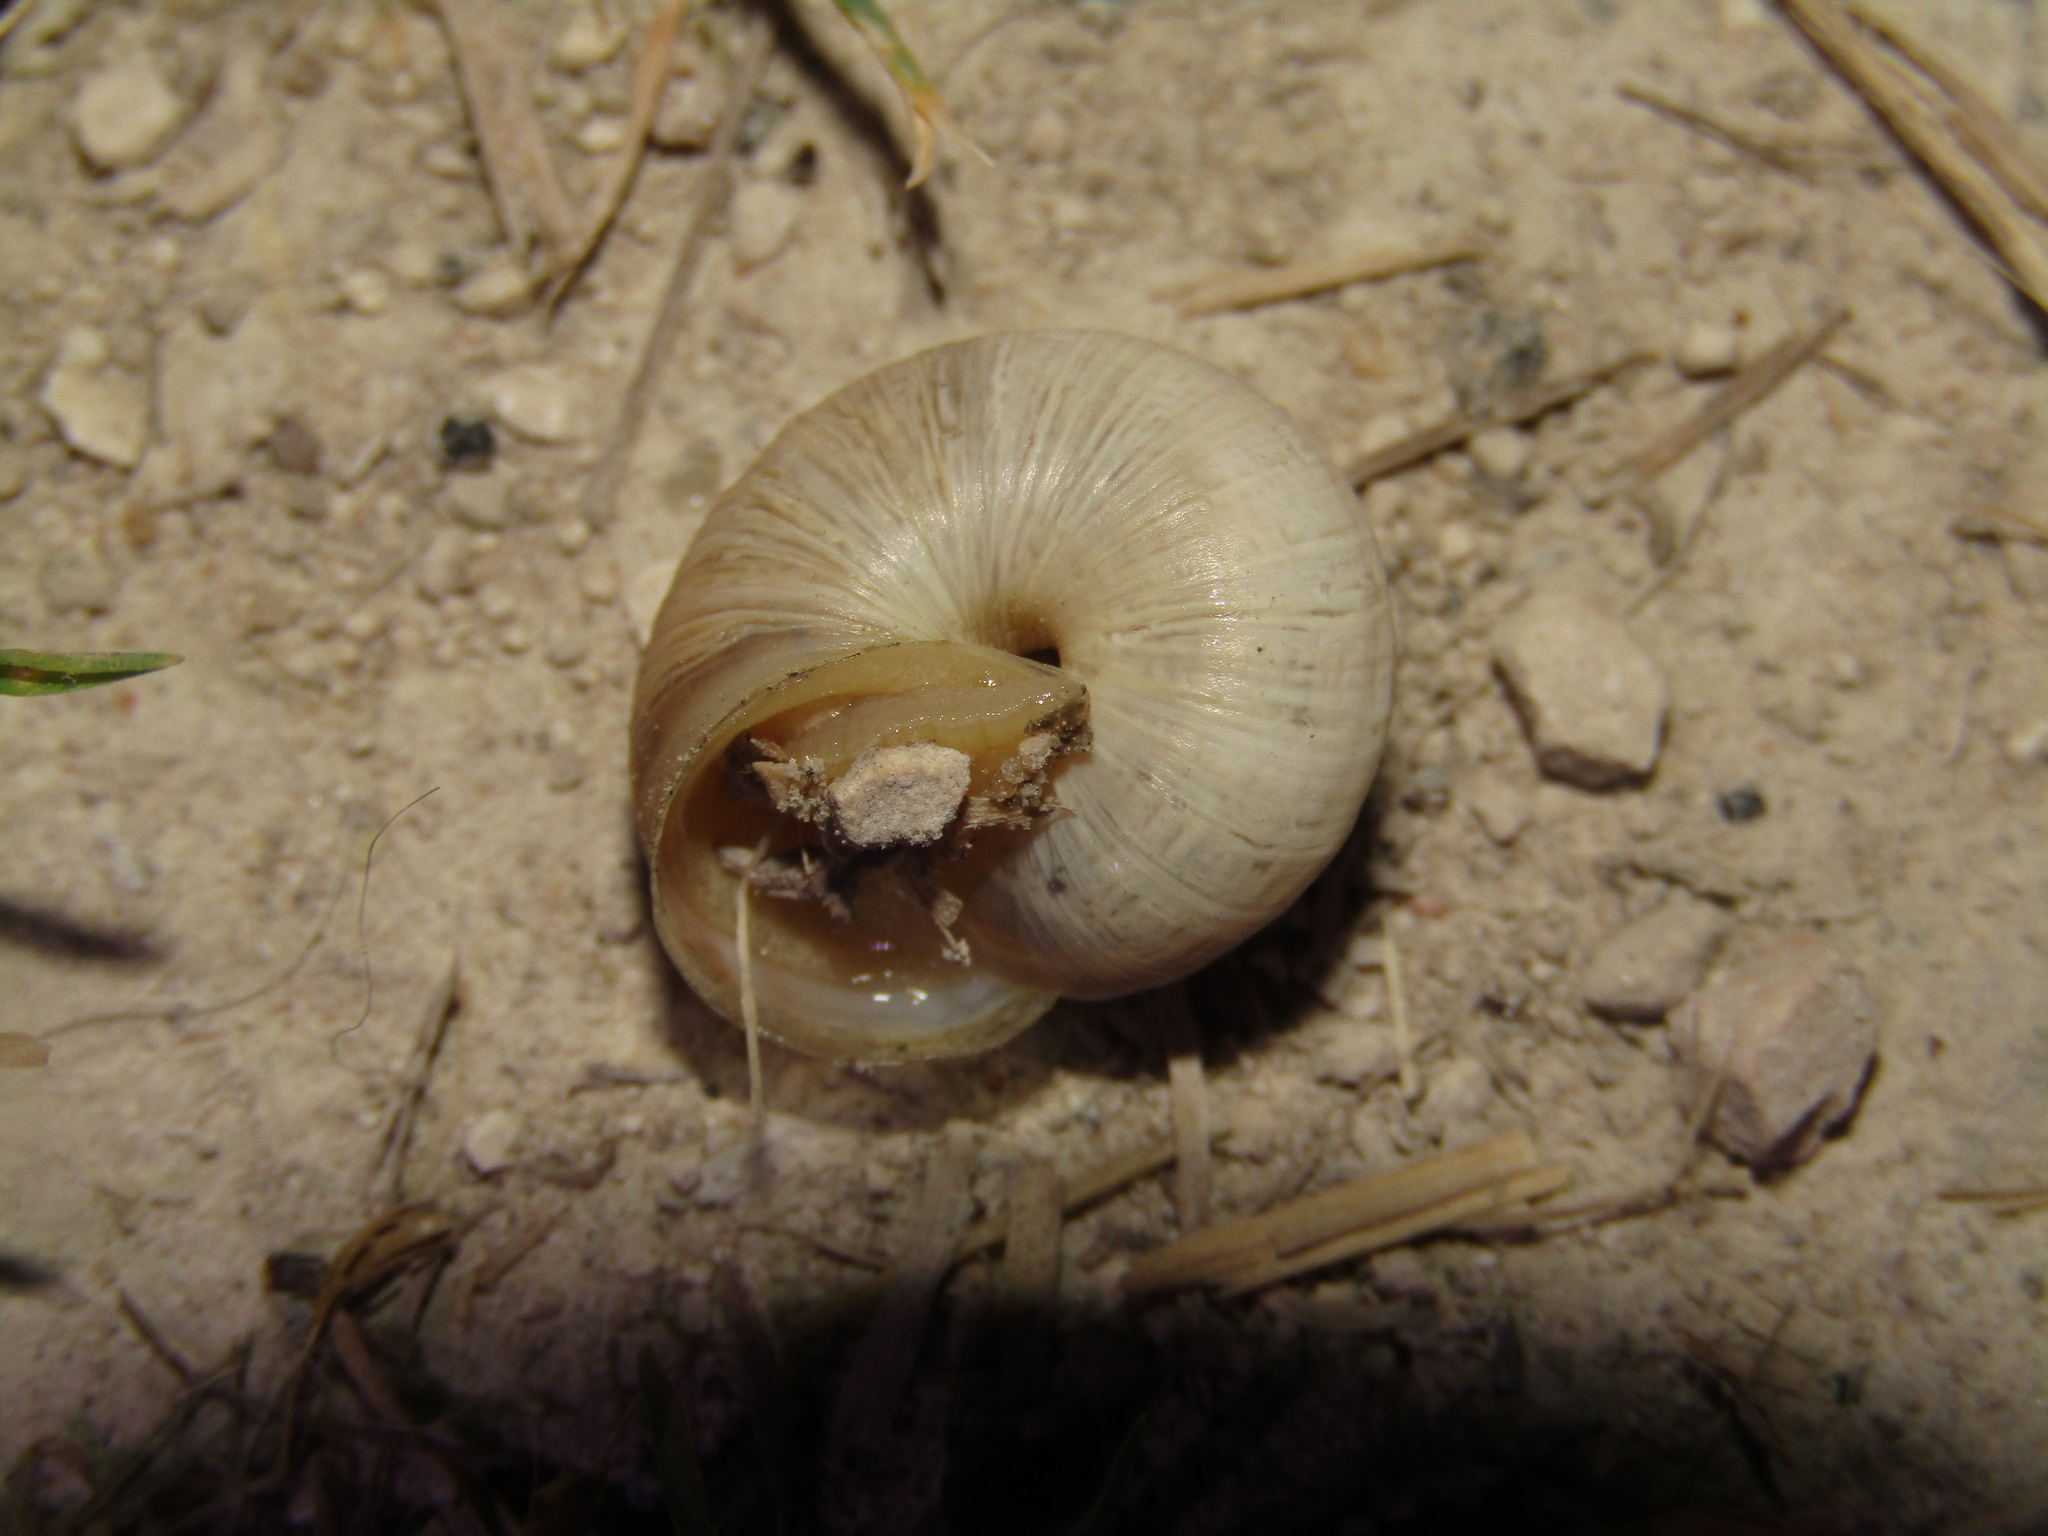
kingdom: Animalia
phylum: Mollusca
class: Gastropoda
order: Stylommatophora
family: Hygromiidae
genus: Harmozica
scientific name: Harmozica ravergiensis
